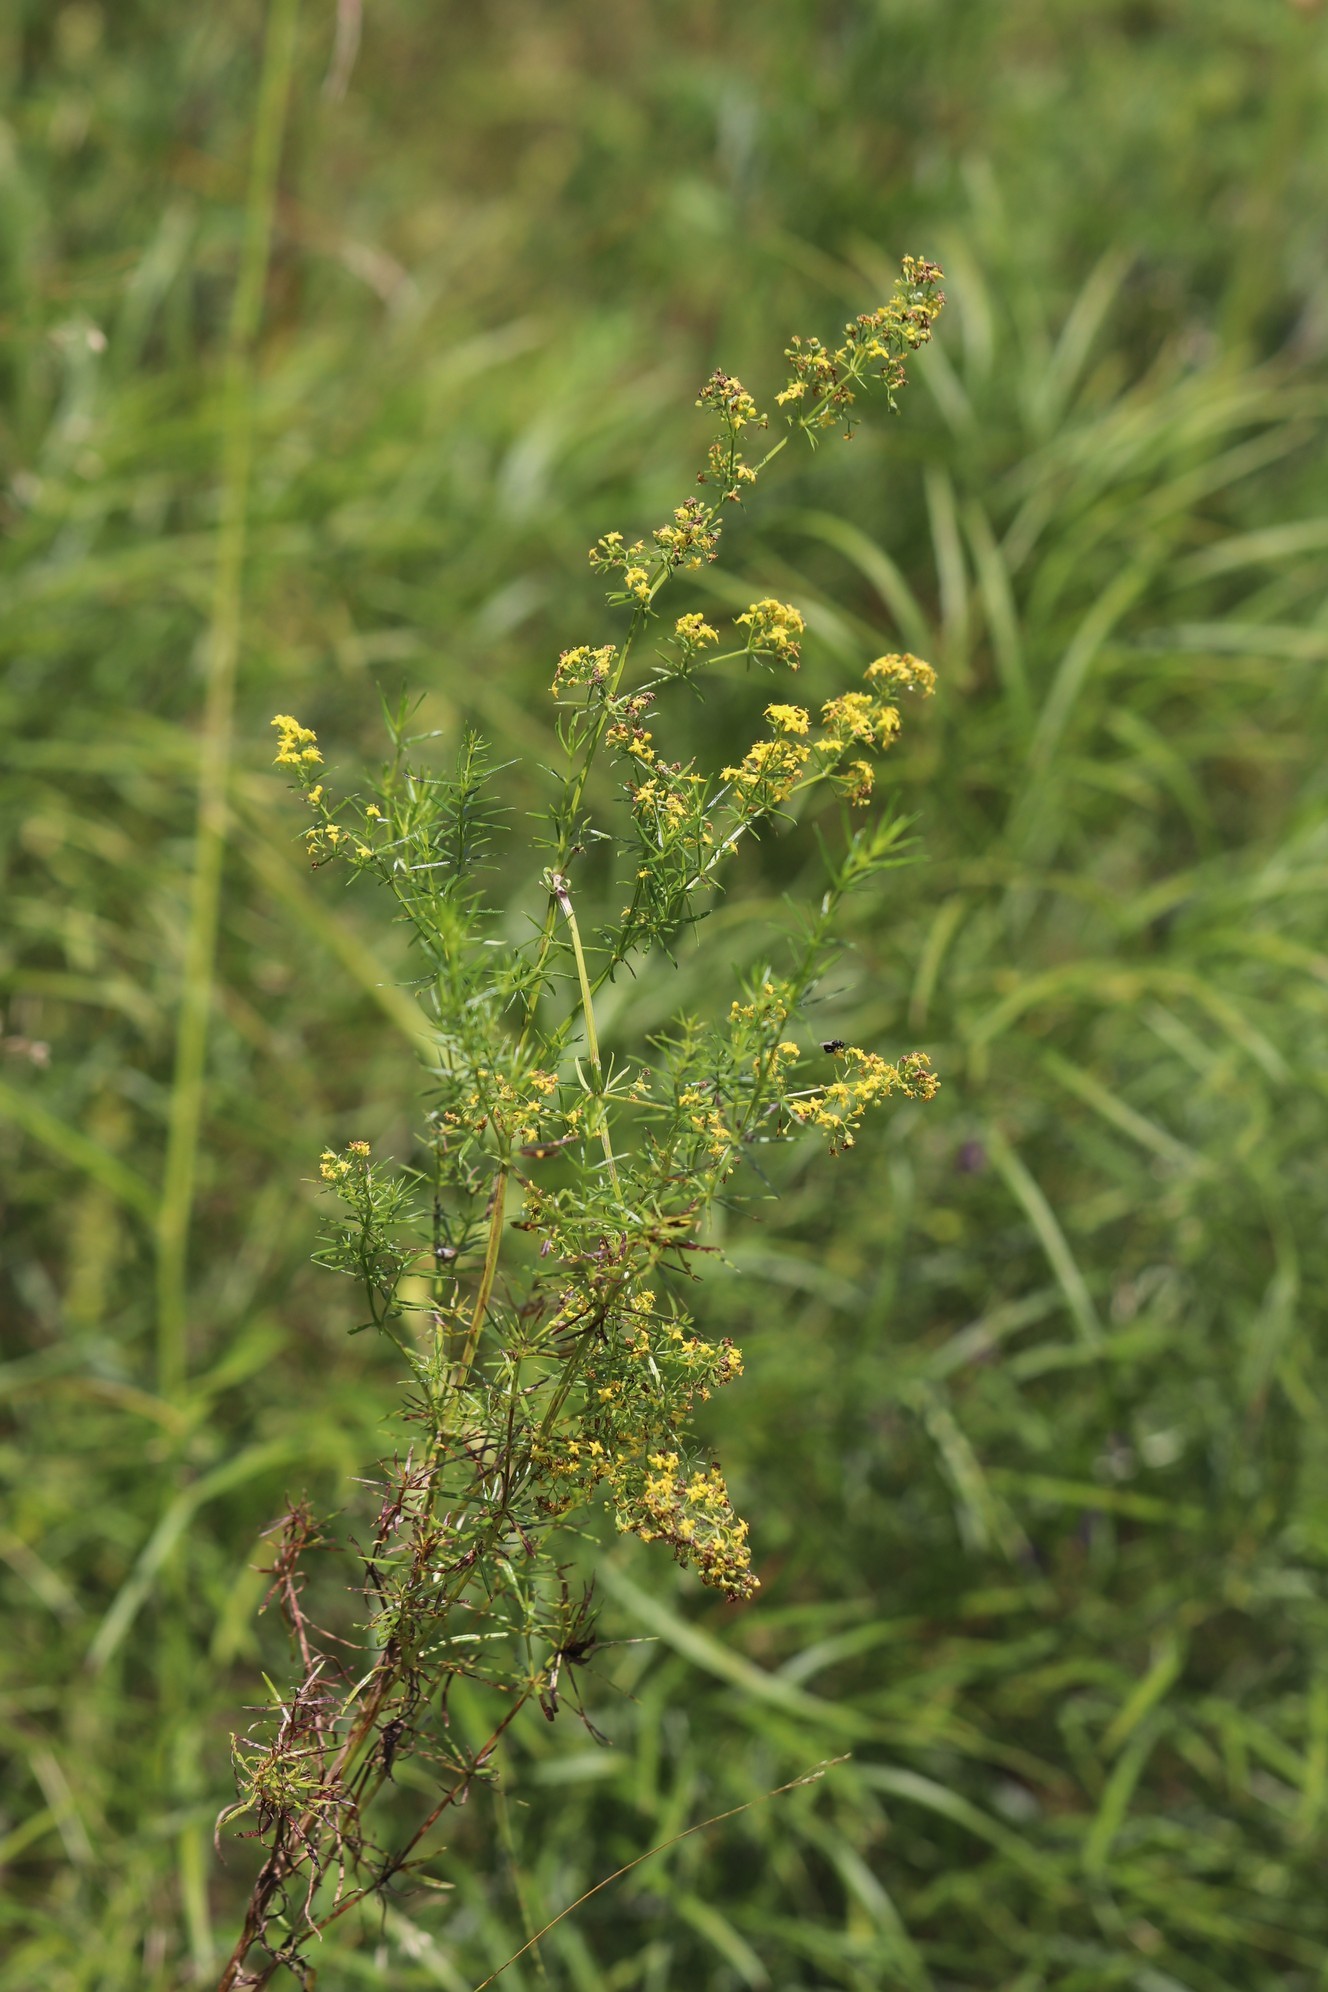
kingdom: Plantae
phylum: Tracheophyta
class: Magnoliopsida
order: Gentianales
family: Rubiaceae
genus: Galium
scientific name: Galium verum
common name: Lady's bedstraw
